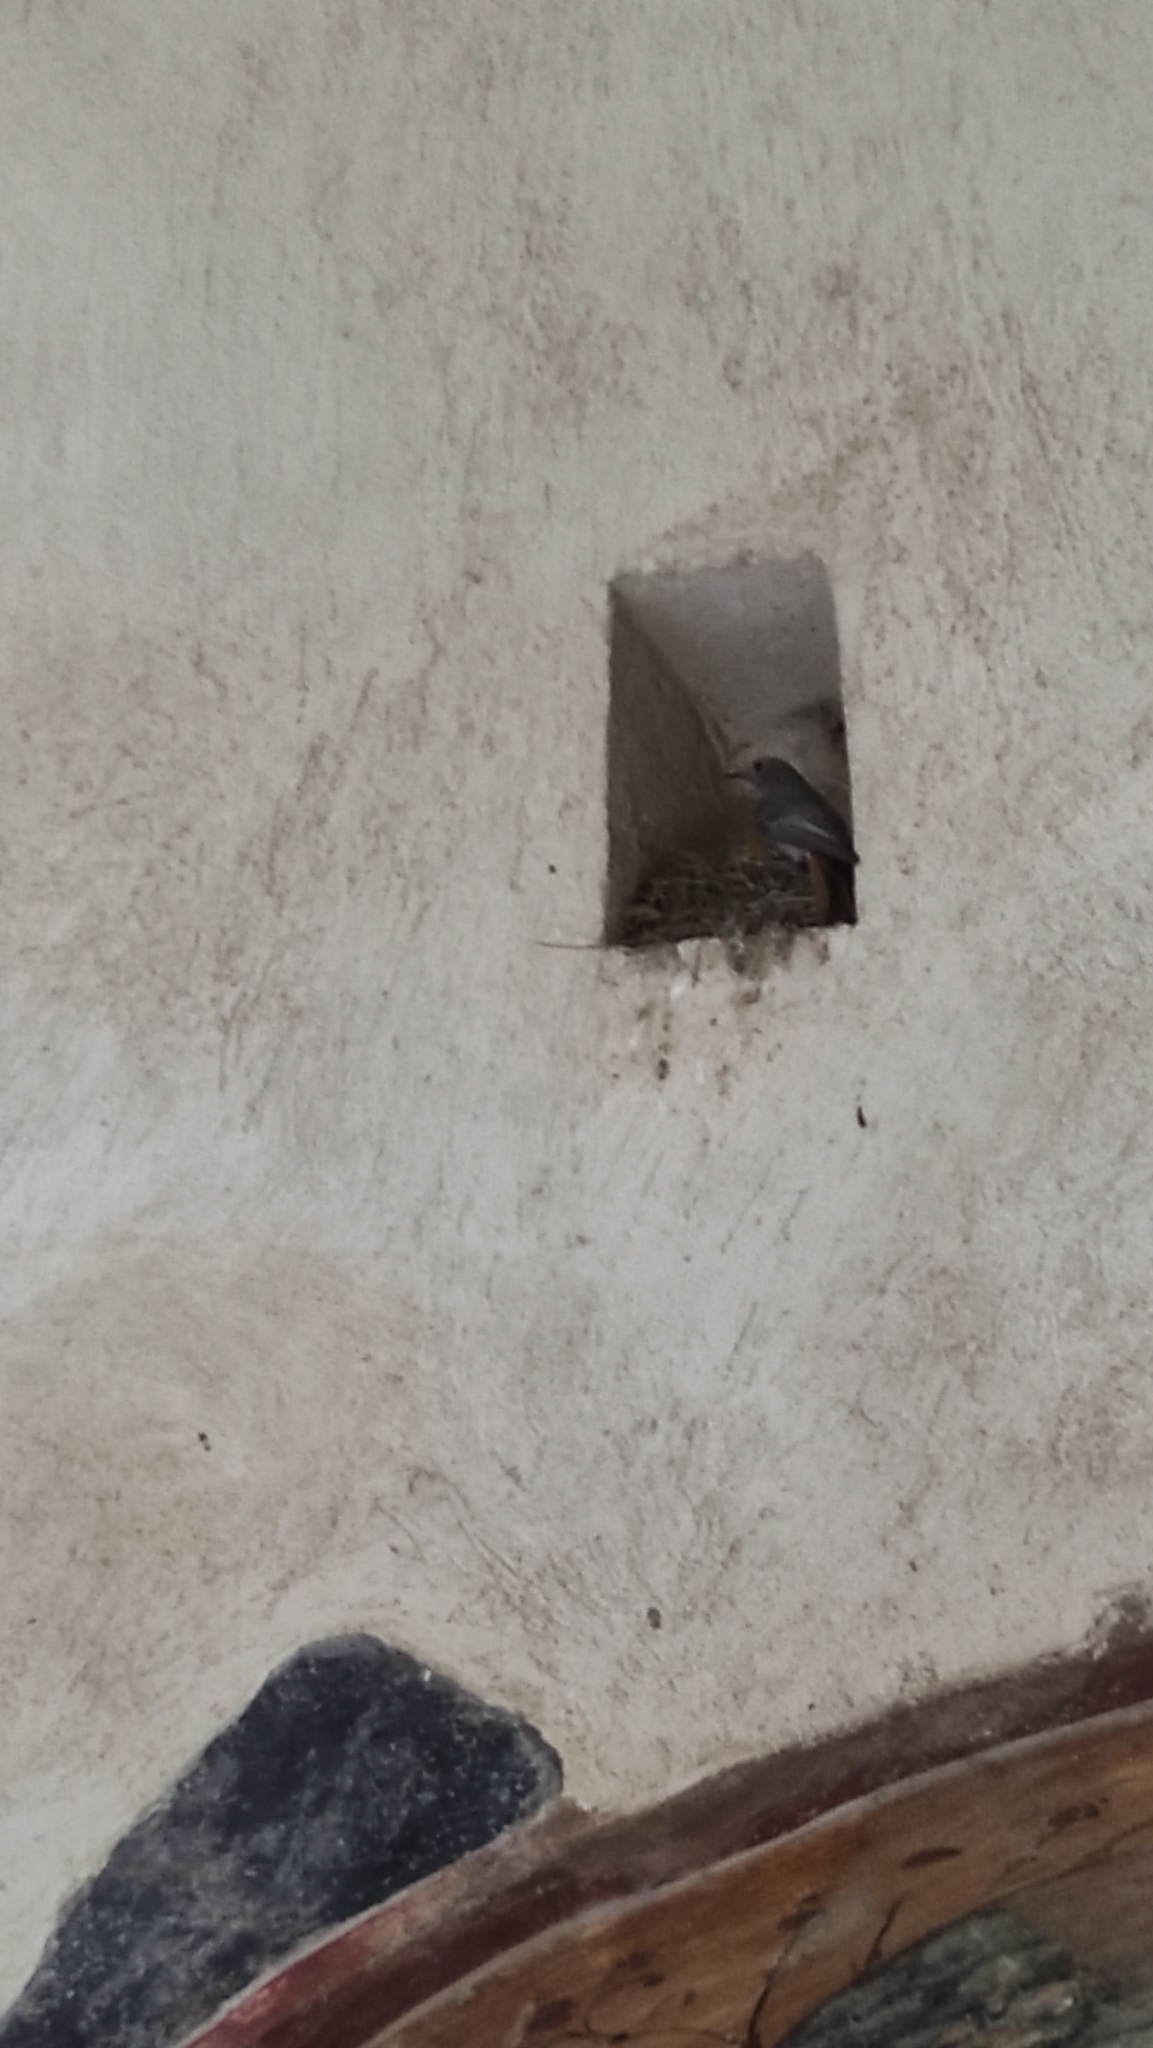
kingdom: Animalia
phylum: Chordata
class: Aves
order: Passeriformes
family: Muscicapidae
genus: Phoenicurus
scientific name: Phoenicurus ochruros
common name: Black redstart
